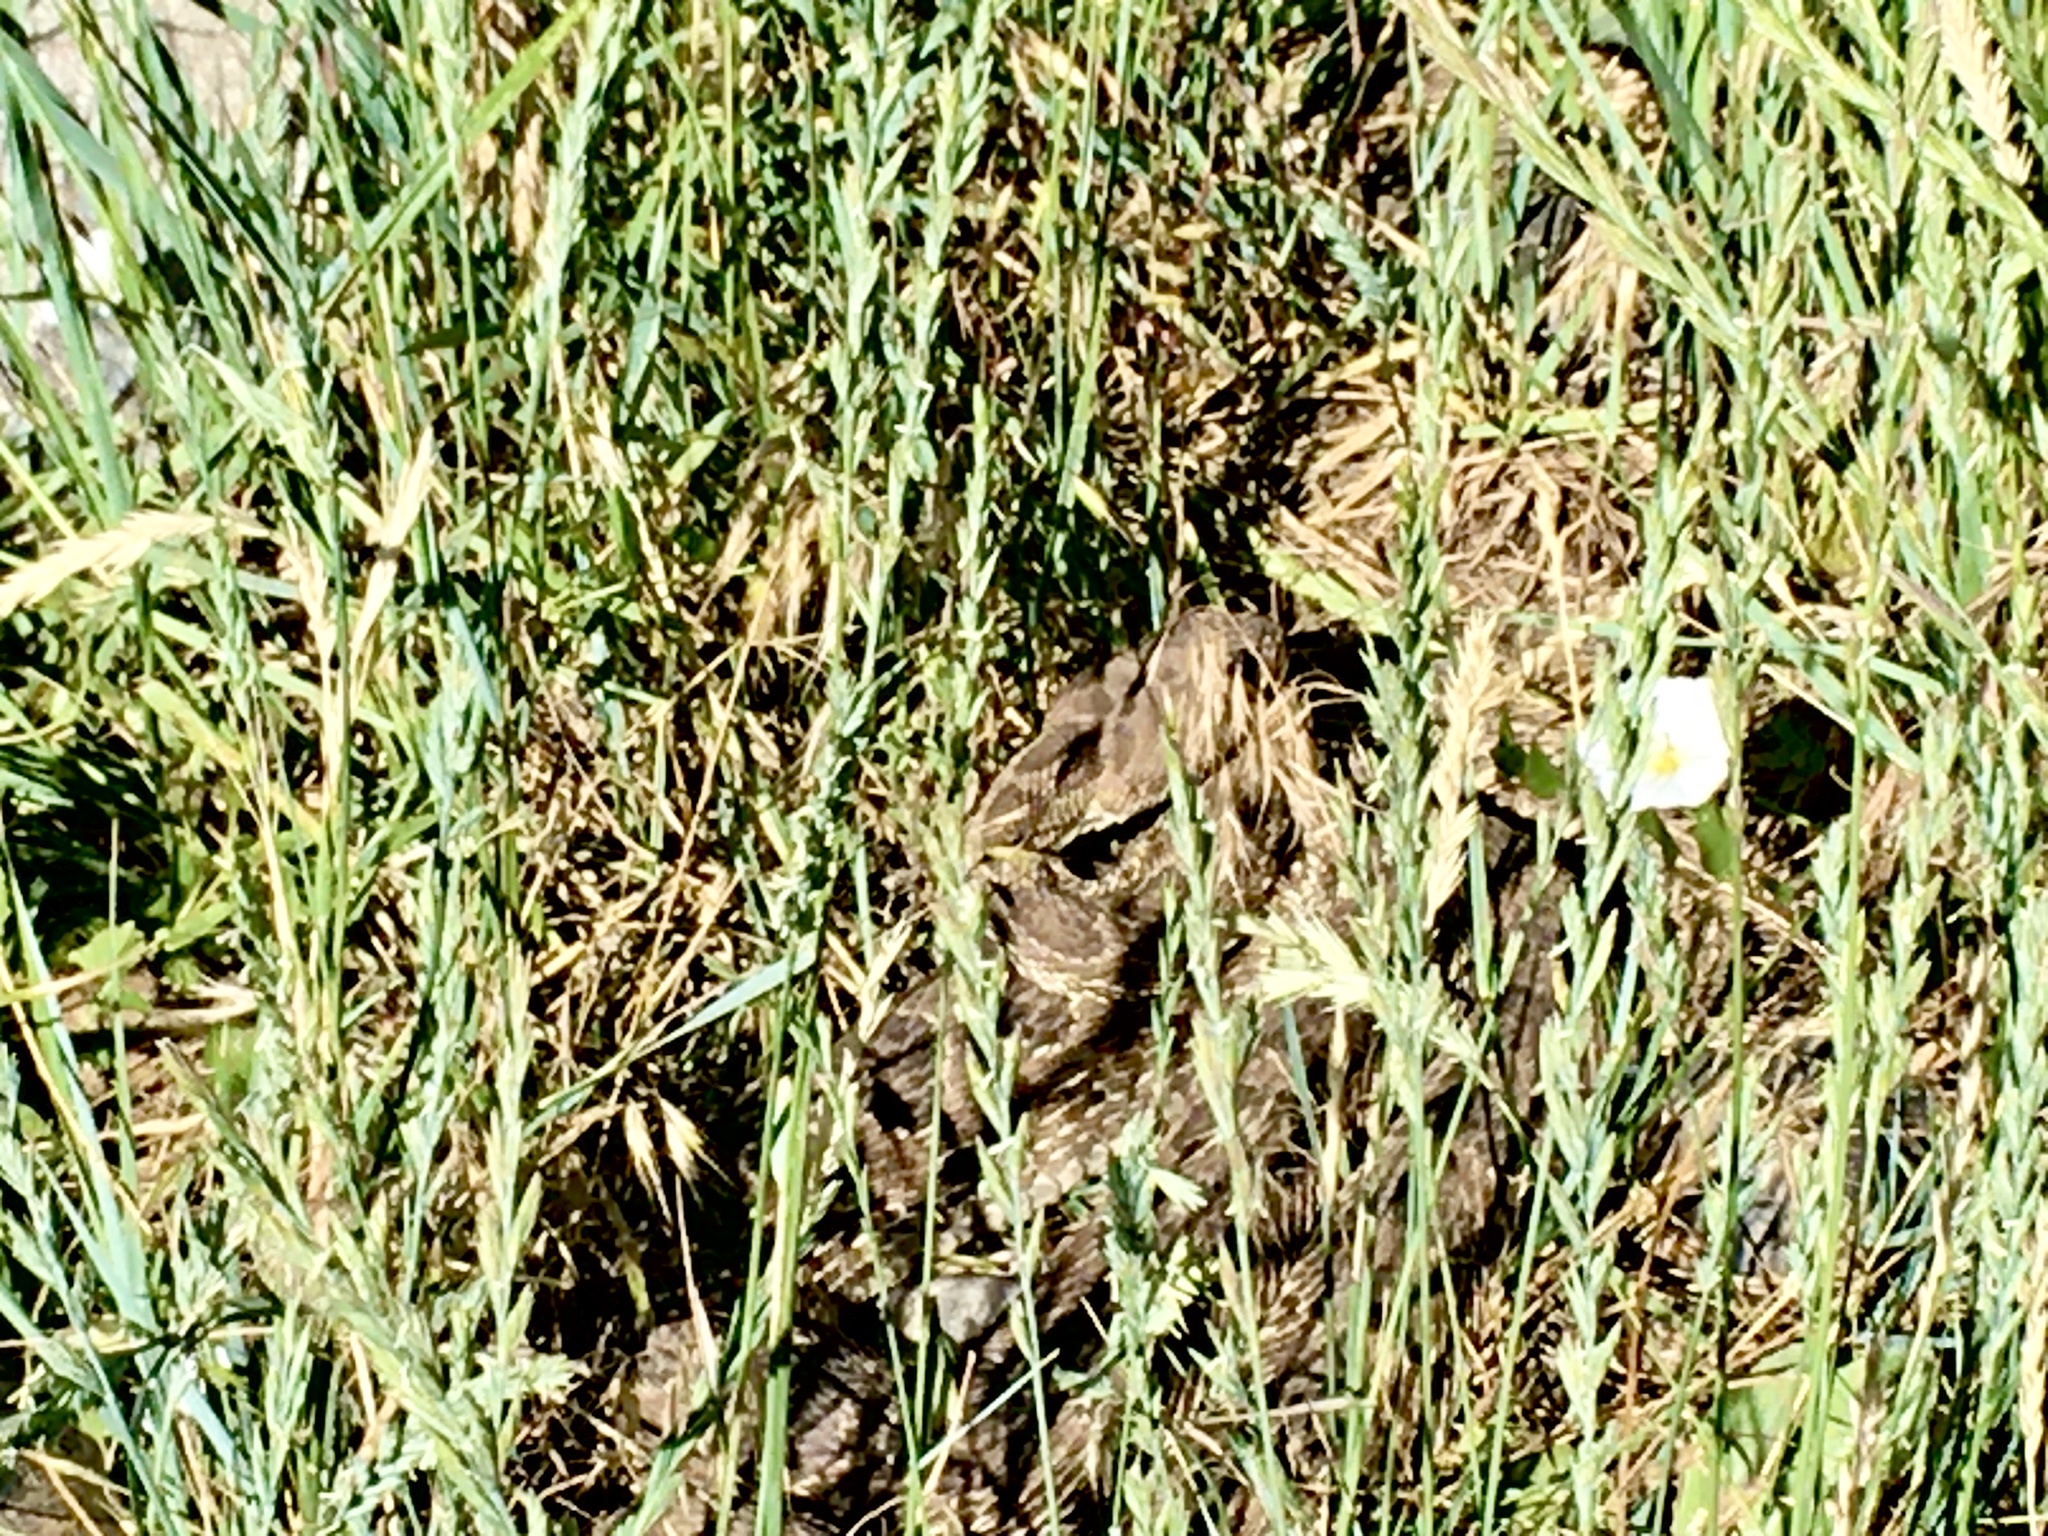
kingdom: Animalia
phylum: Chordata
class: Squamata
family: Viperidae
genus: Crotalus
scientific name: Crotalus viridis
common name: Prairie rattlesnake
